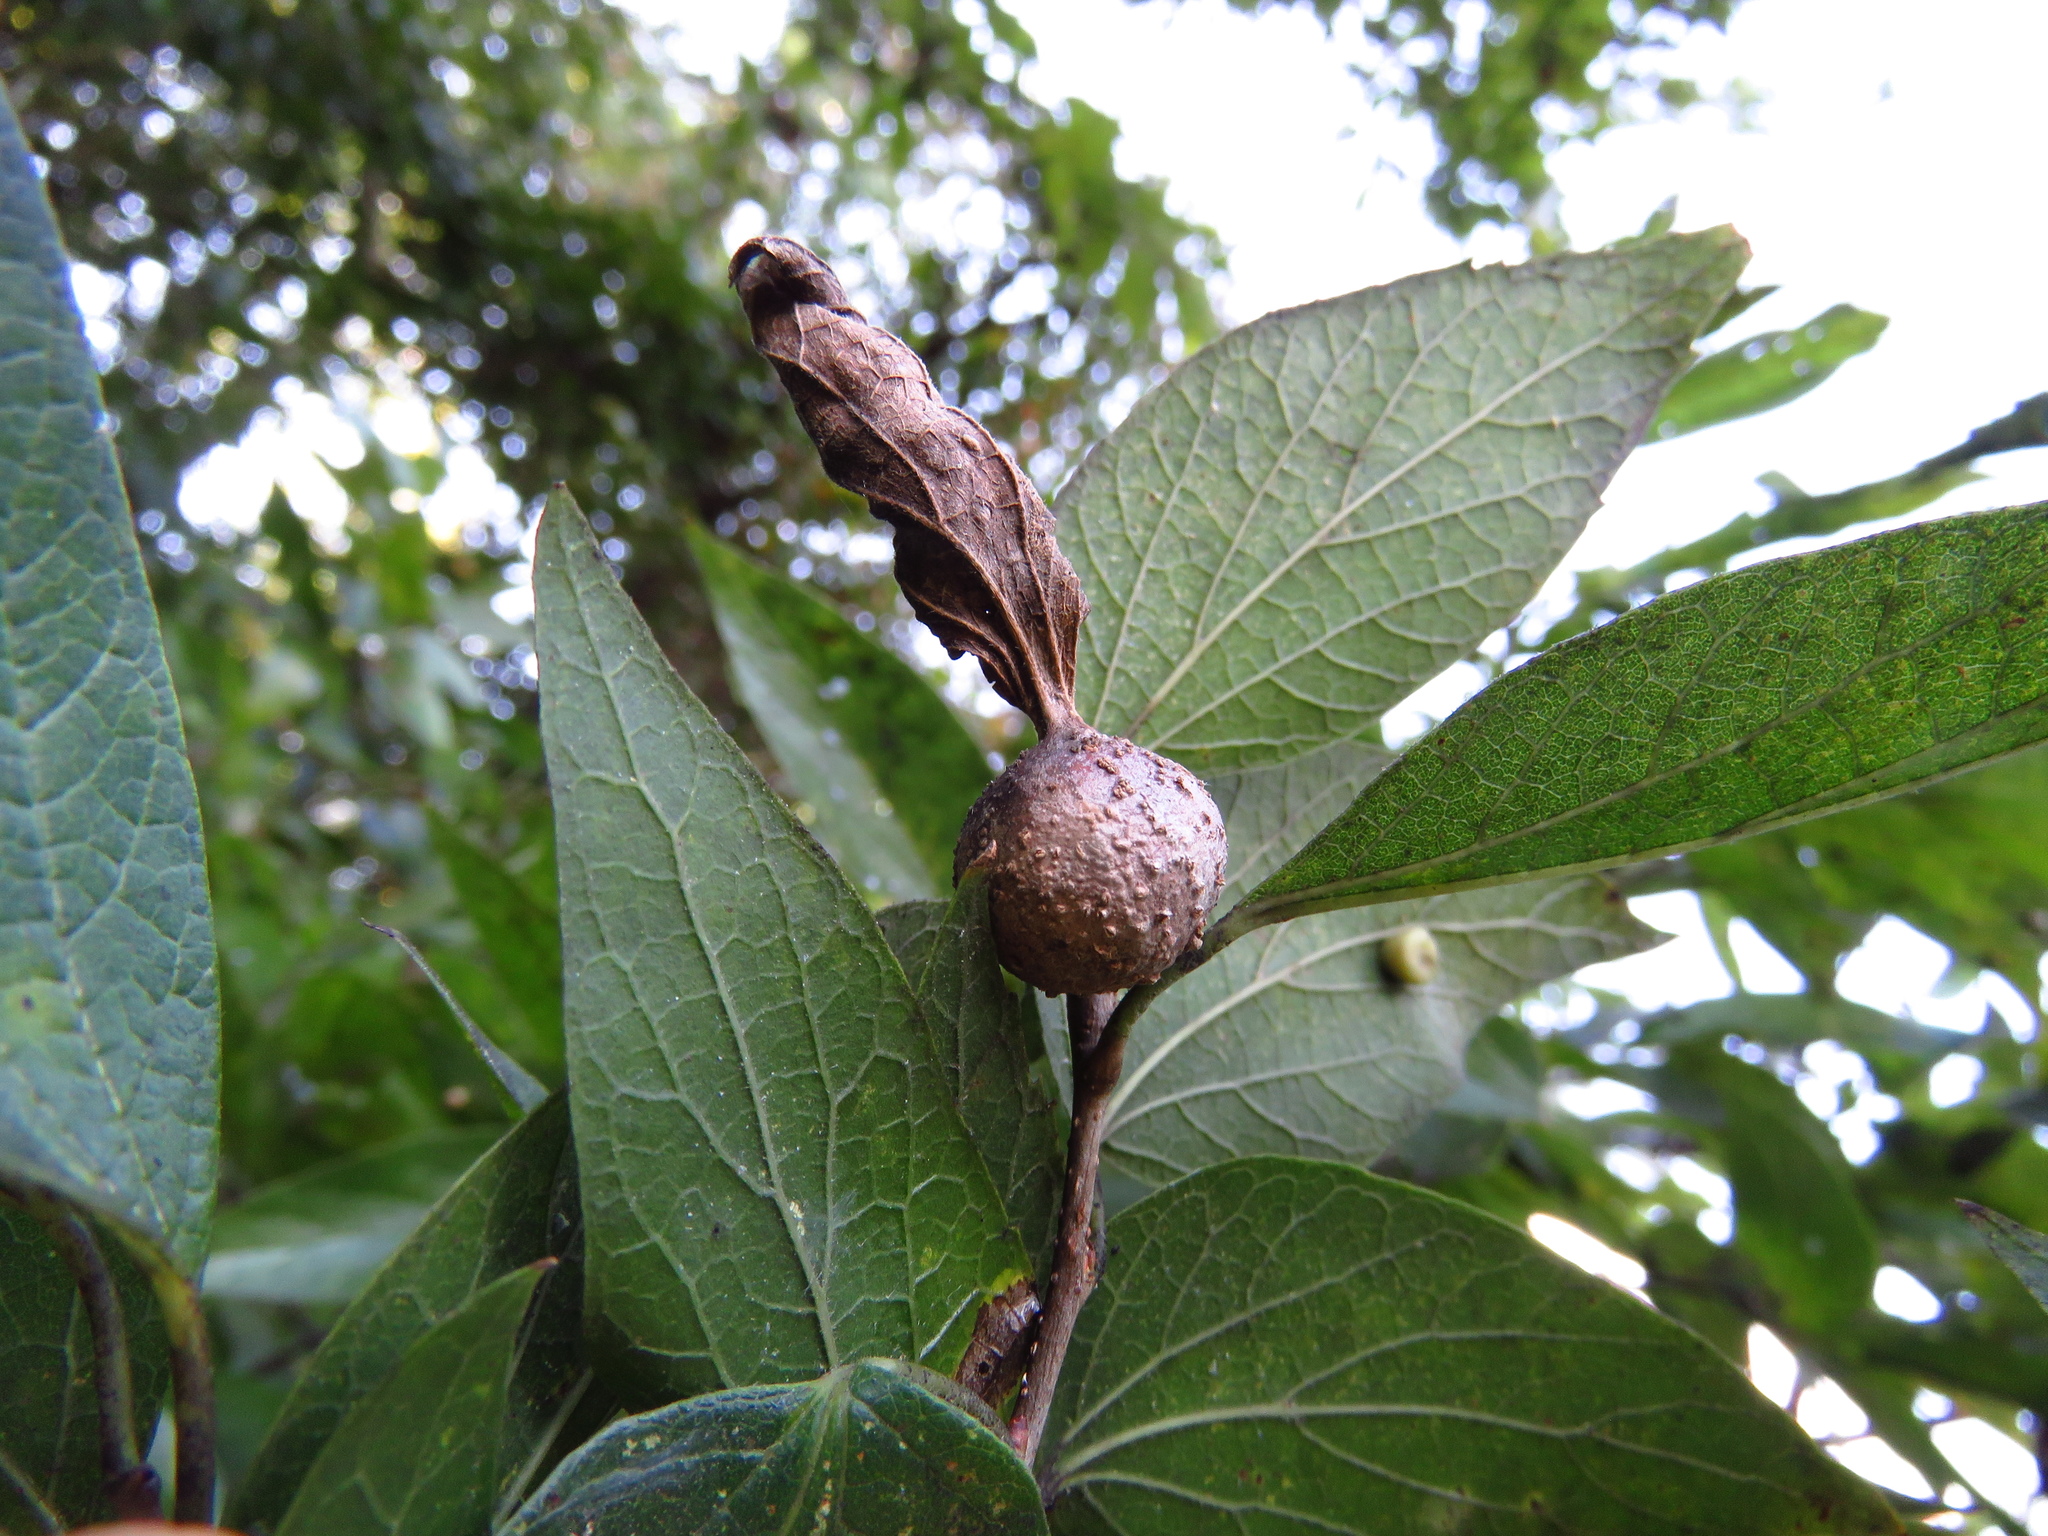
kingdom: Animalia
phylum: Arthropoda
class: Insecta
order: Hemiptera
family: Aphalaridae
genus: Pachypsylla
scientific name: Pachypsylla venusta
